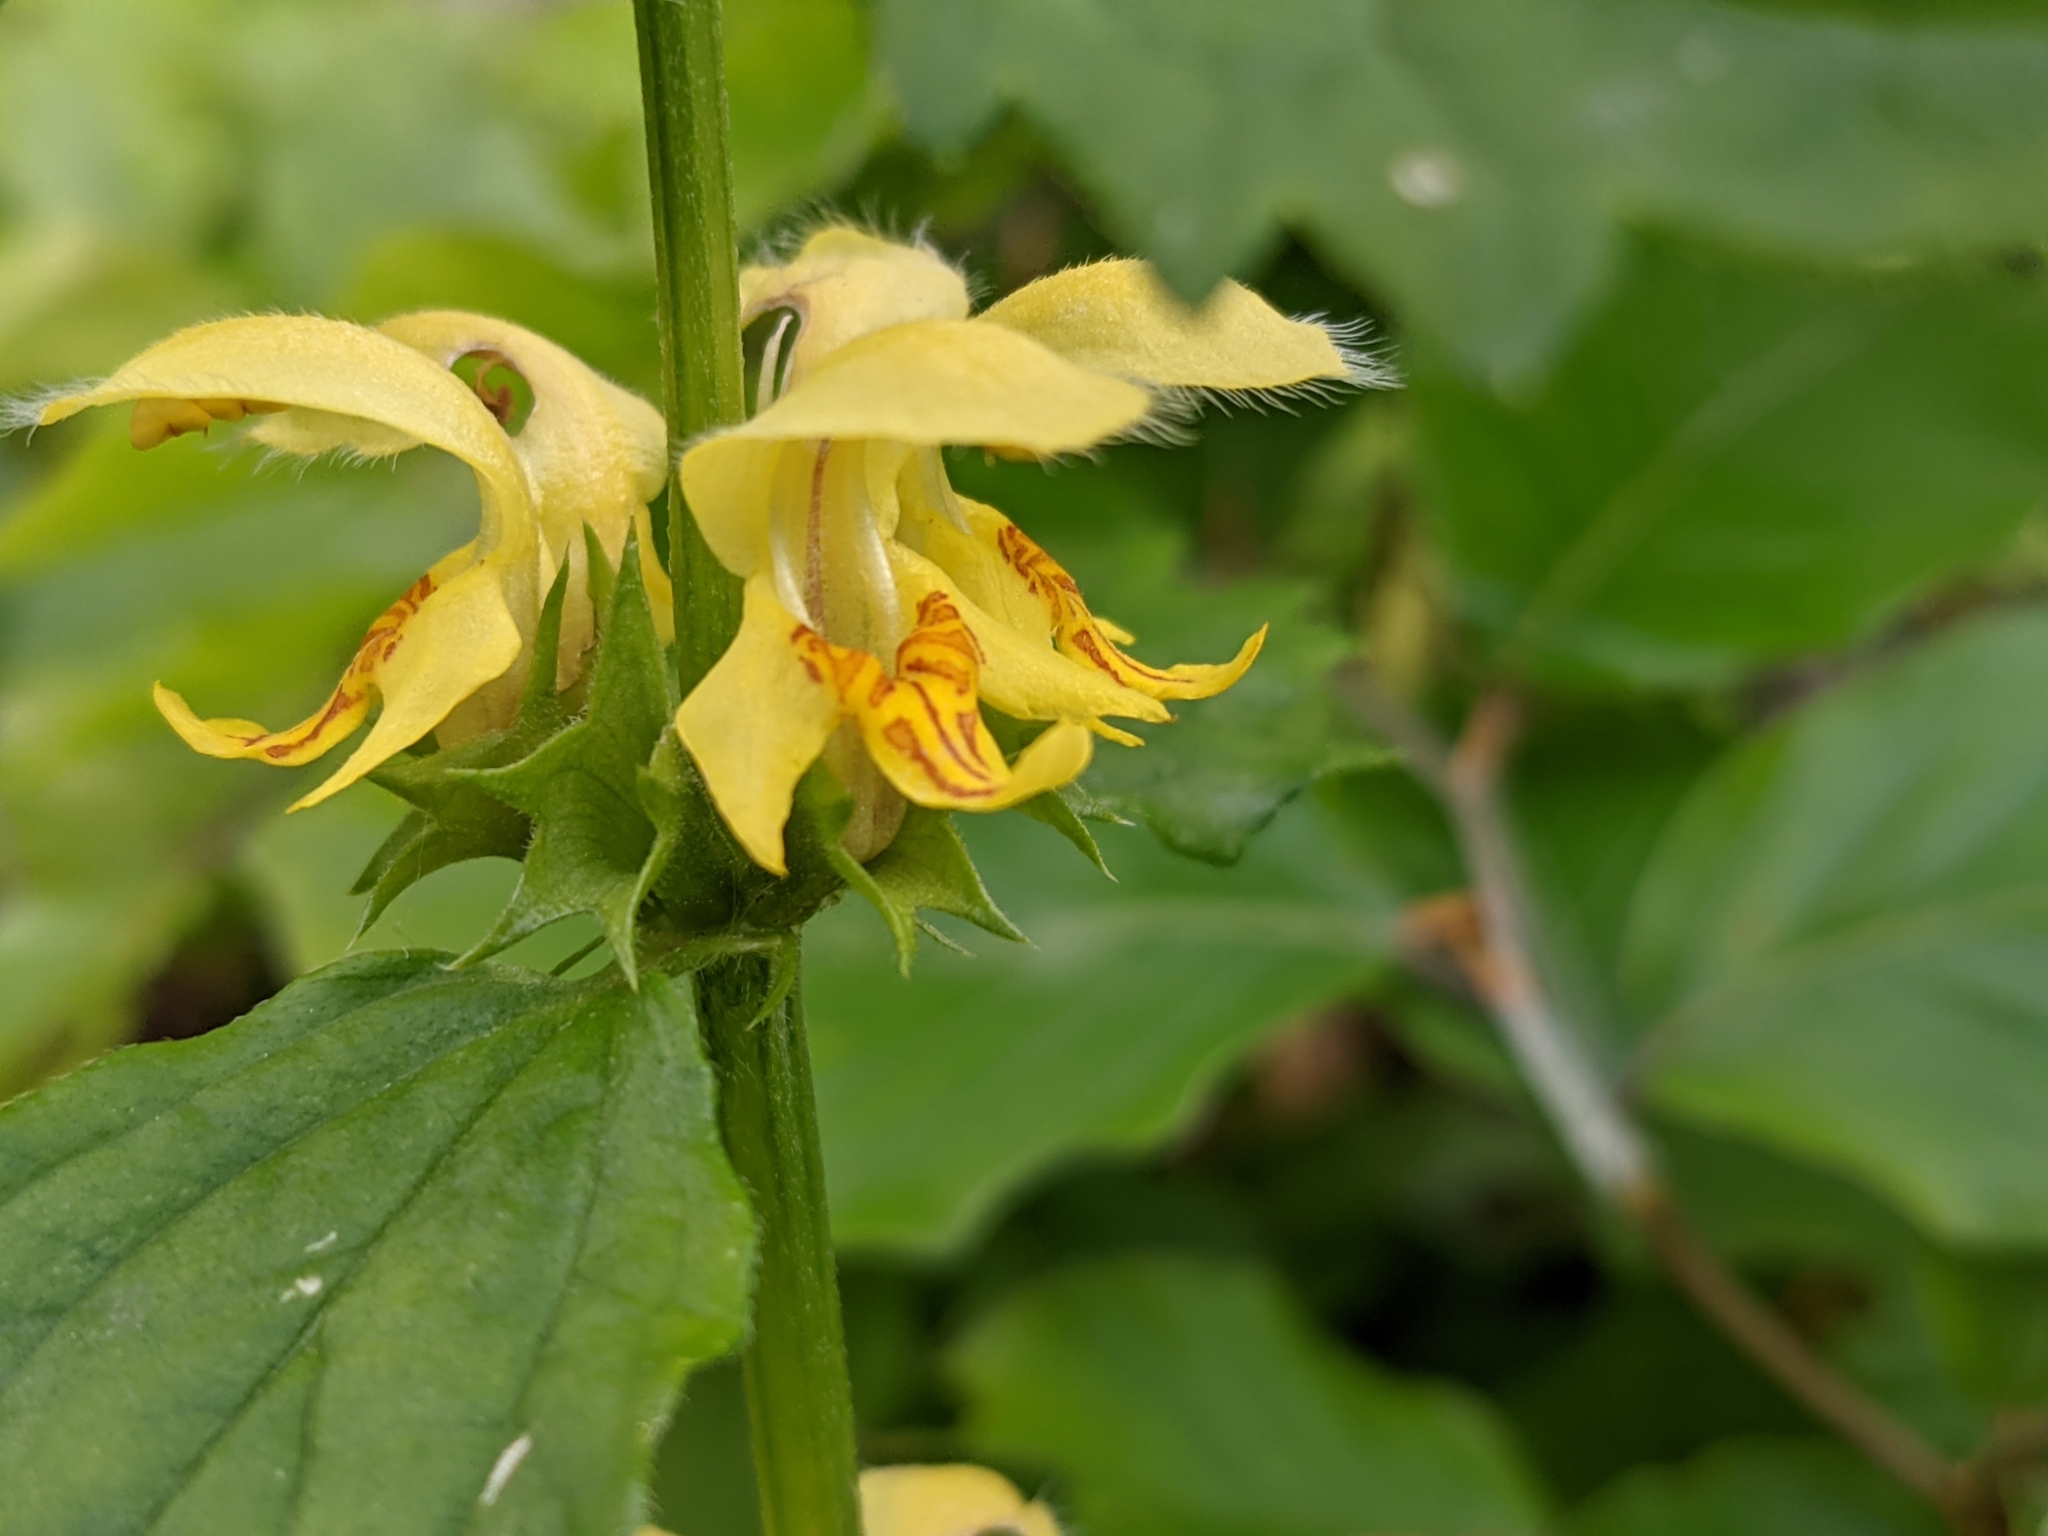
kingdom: Plantae
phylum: Tracheophyta
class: Magnoliopsida
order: Lamiales
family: Lamiaceae
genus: Lamium
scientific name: Lamium galeobdolon
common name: Yellow archangel
